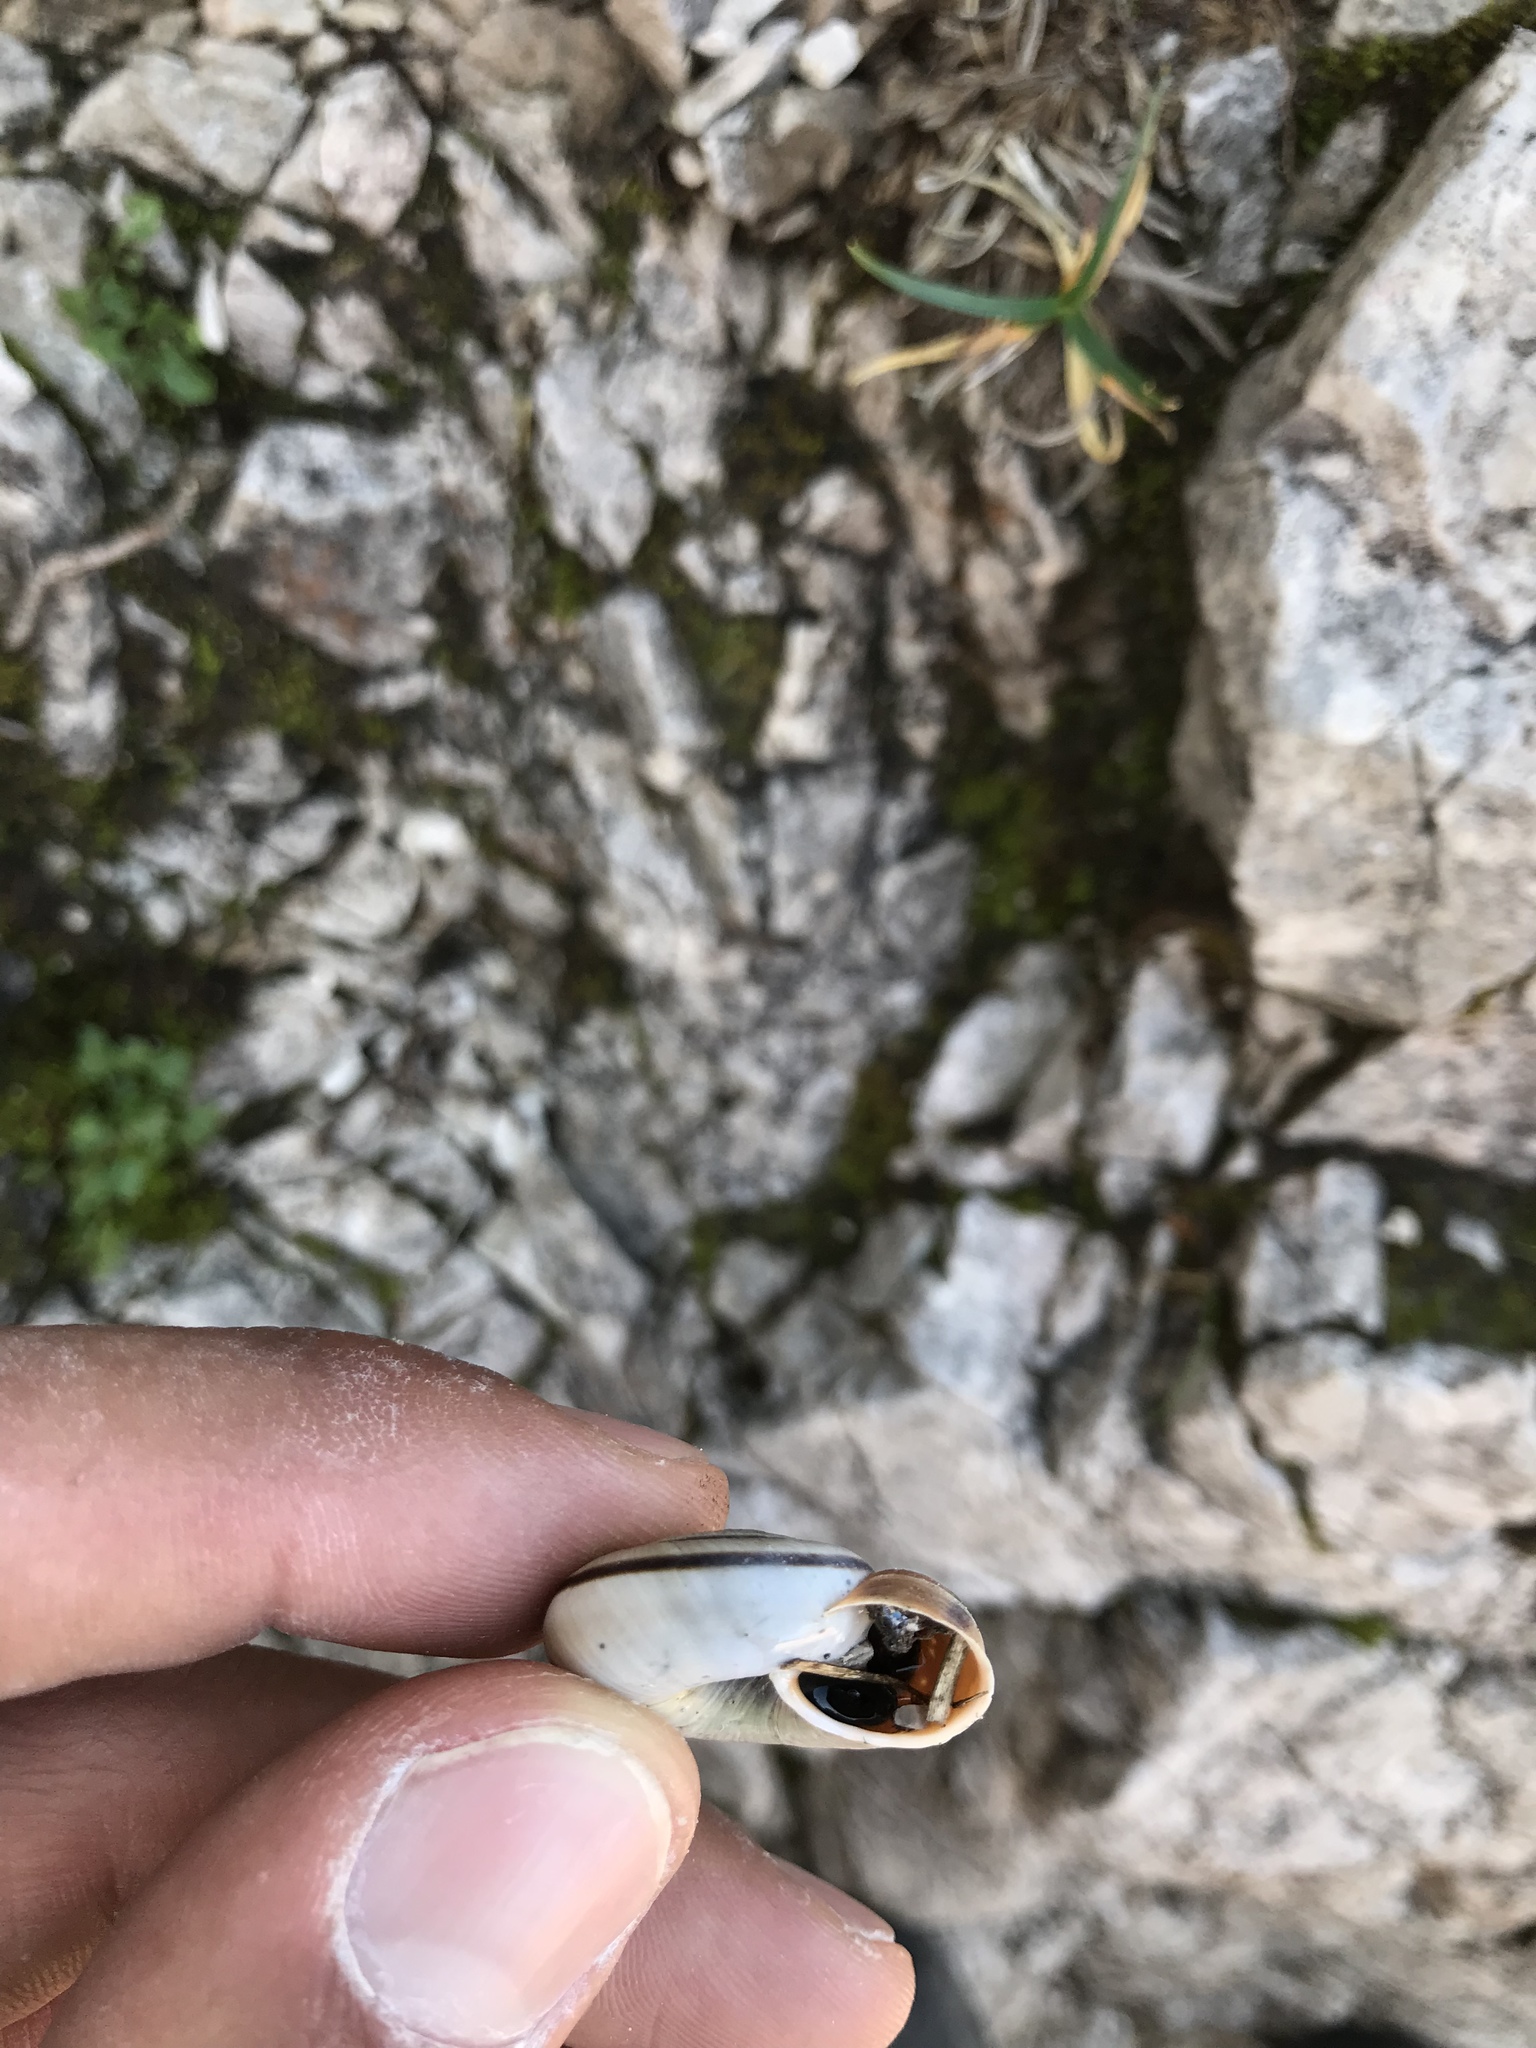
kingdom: Animalia
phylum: Mollusca
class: Gastropoda
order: Stylommatophora
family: Helicidae
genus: Chilostoma
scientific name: Chilostoma frigidum
